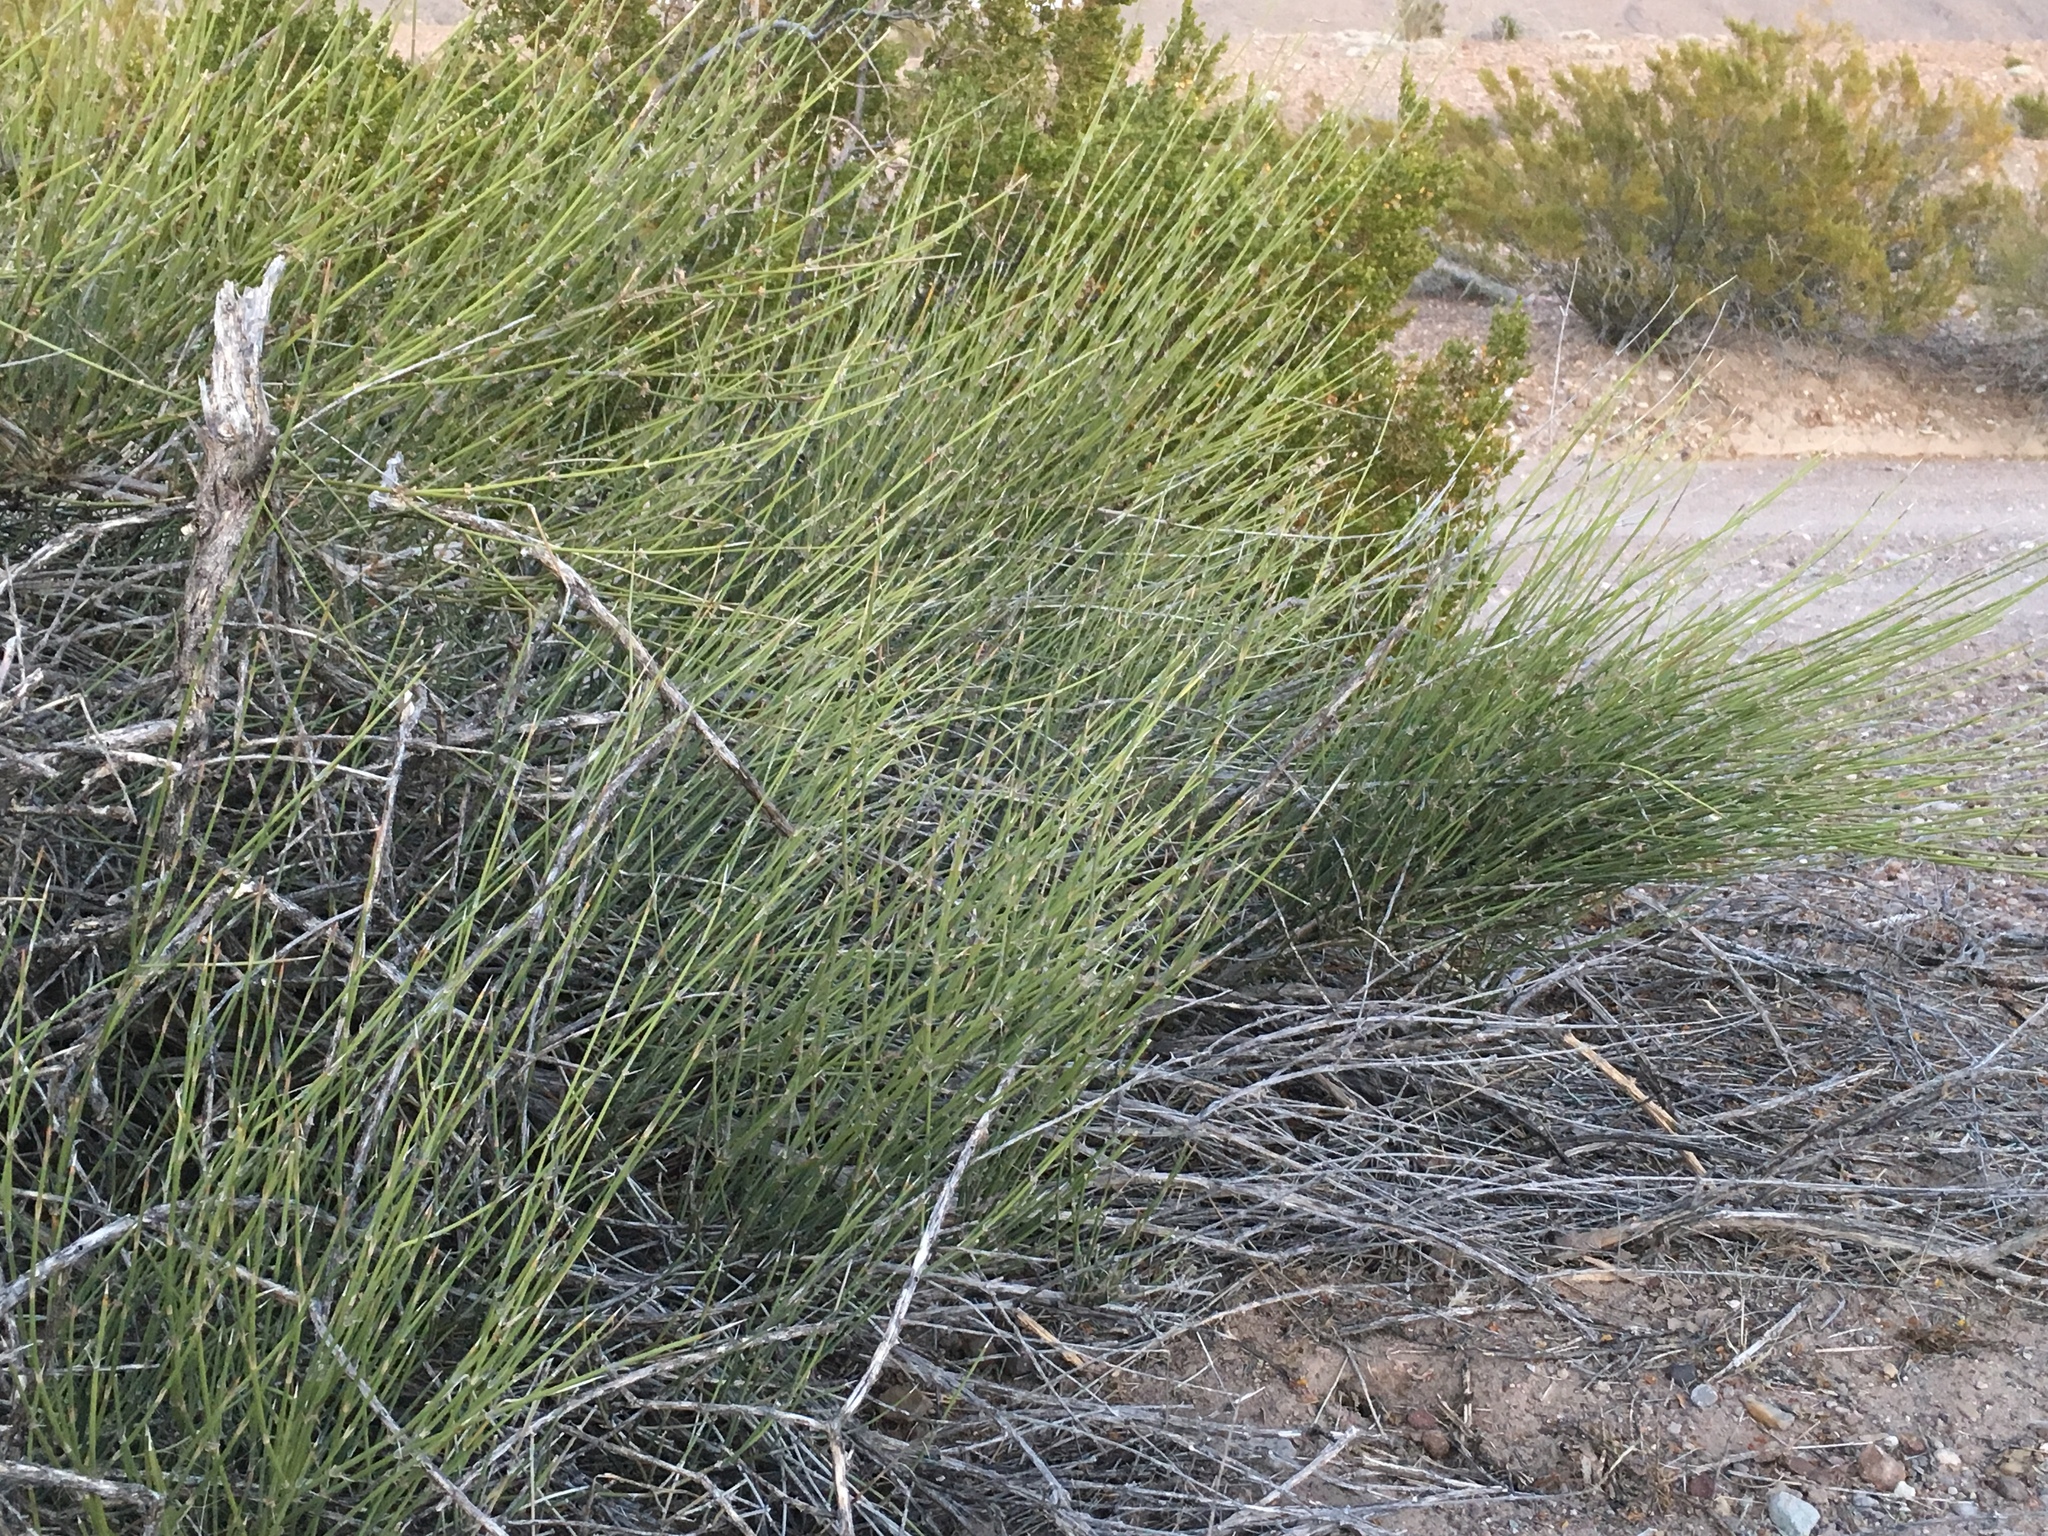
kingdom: Plantae
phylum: Tracheophyta
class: Gnetopsida
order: Ephedrales
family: Ephedraceae
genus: Ephedra
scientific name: Ephedra trifurca
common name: Mexican-tea
